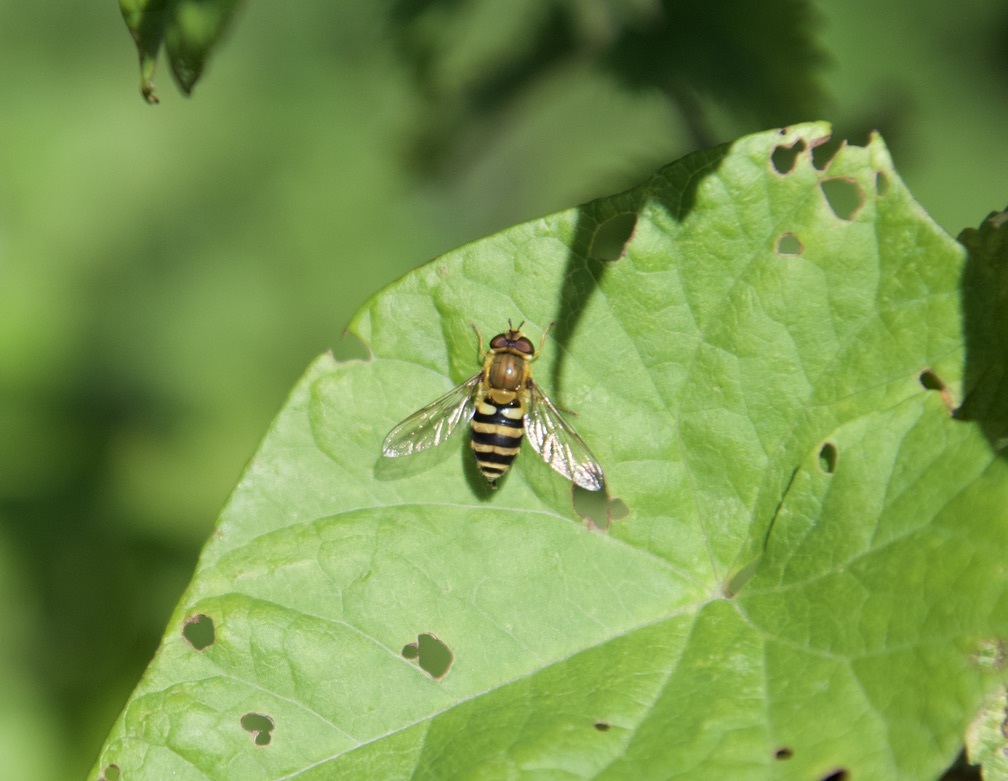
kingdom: Animalia
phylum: Arthropoda
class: Insecta
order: Diptera
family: Syrphidae
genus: Syrphus
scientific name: Syrphus
